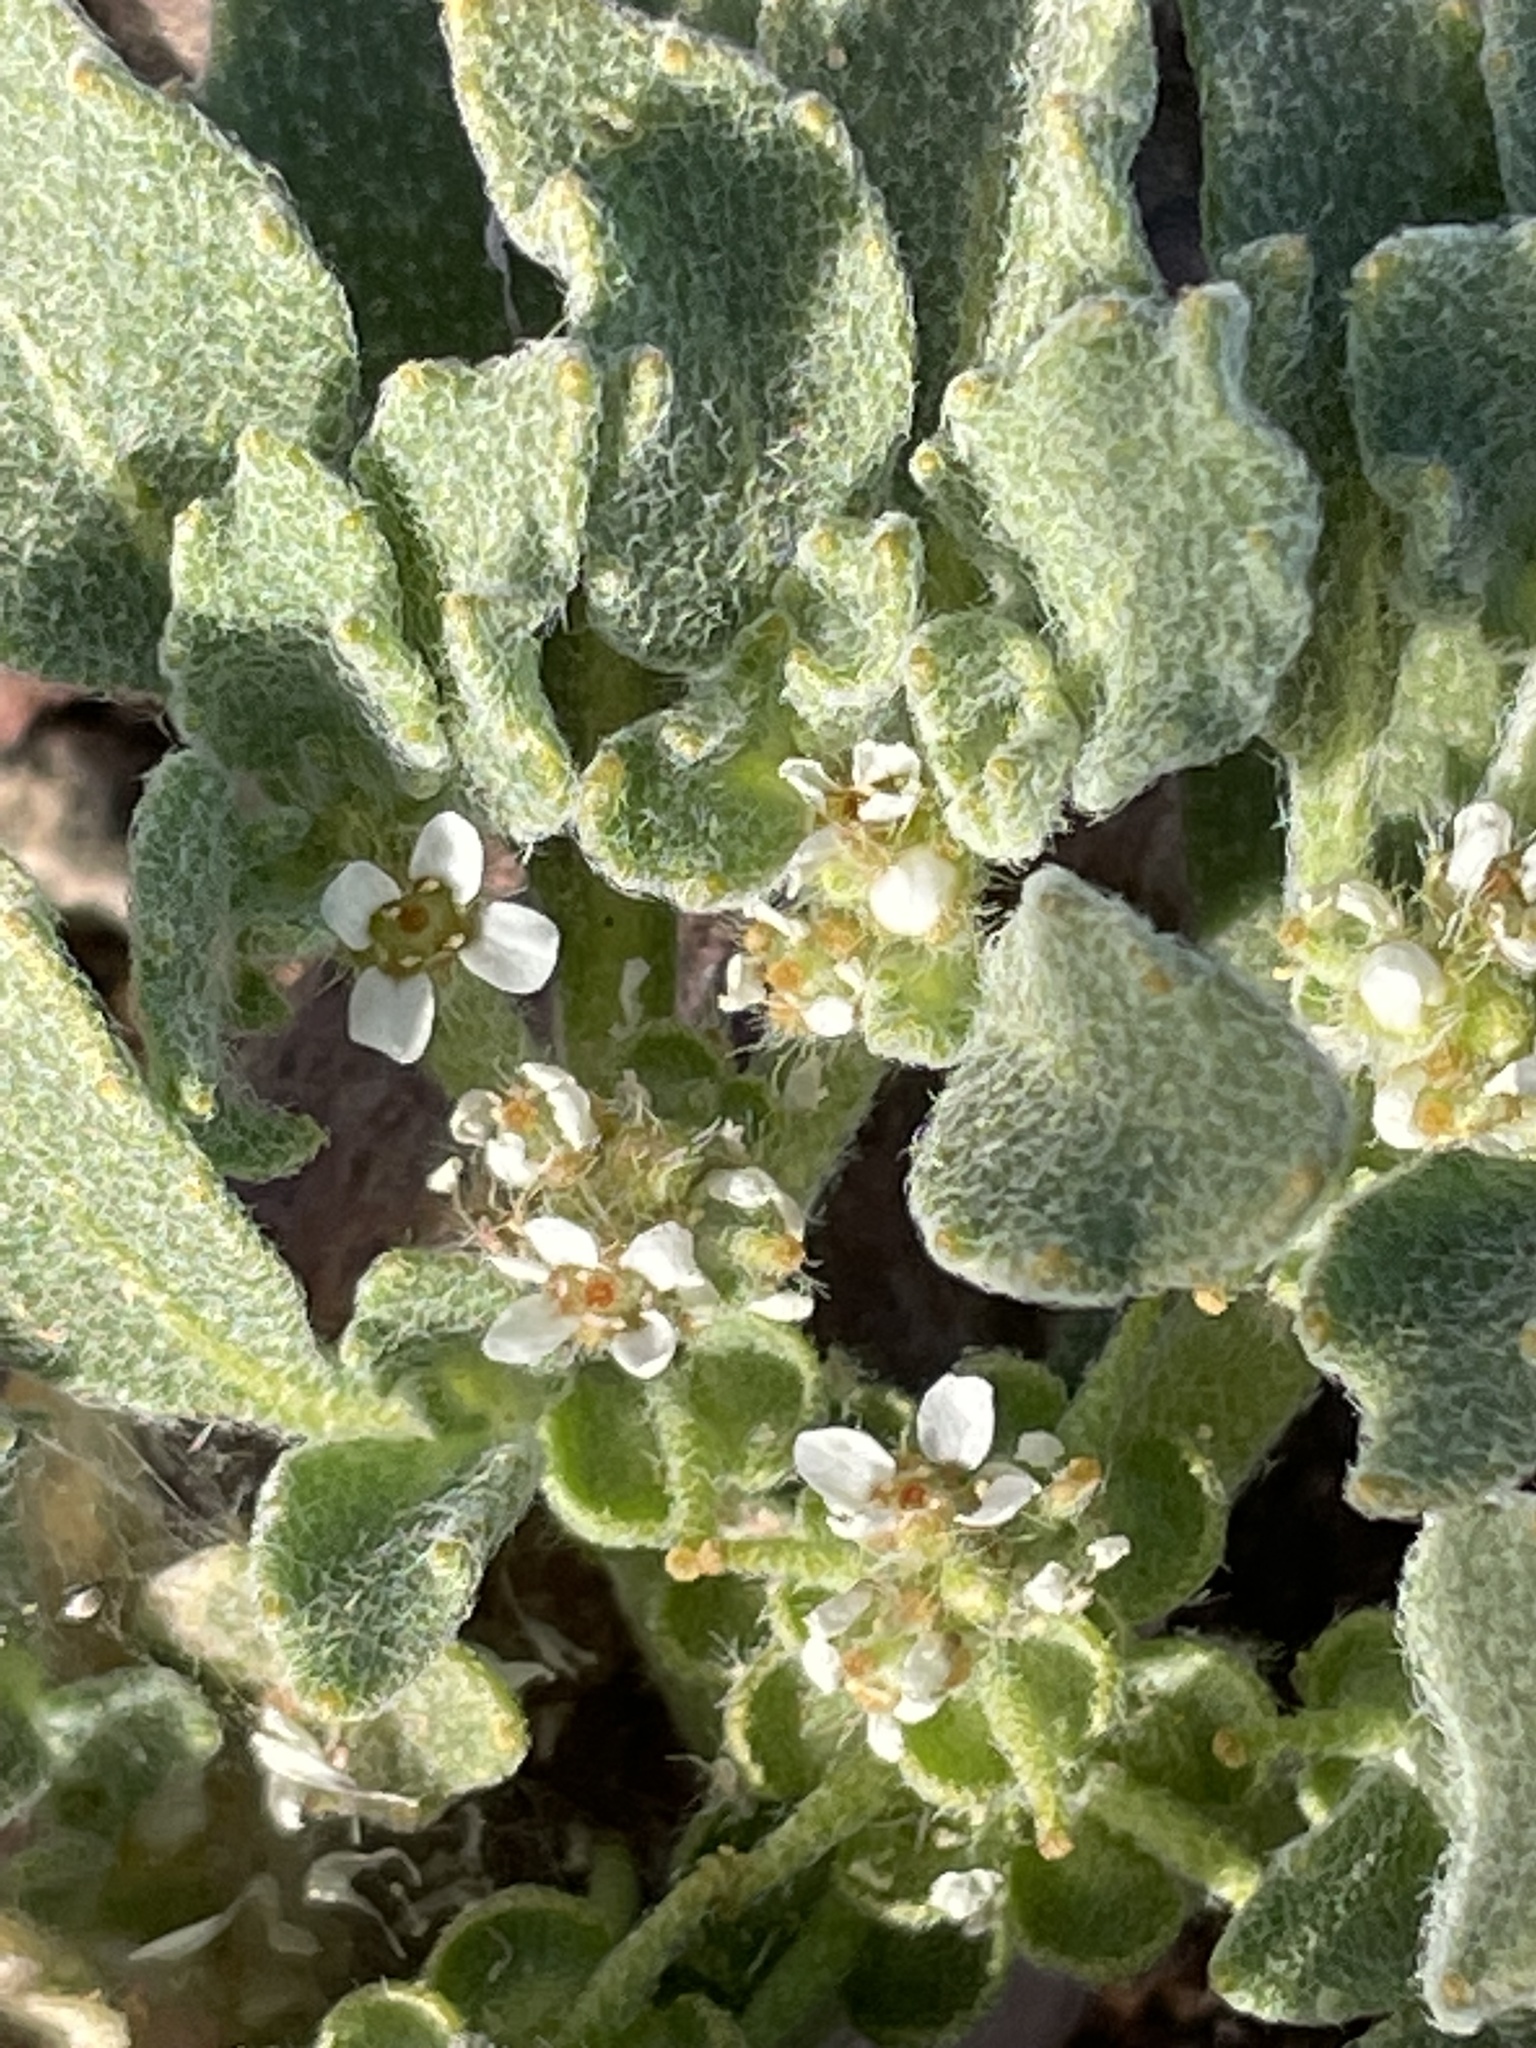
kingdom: Plantae
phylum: Tracheophyta
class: Magnoliopsida
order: Brassicales
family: Brassicaceae
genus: Anastatica
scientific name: Anastatica hierochuntica
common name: Rose-of-jericho
